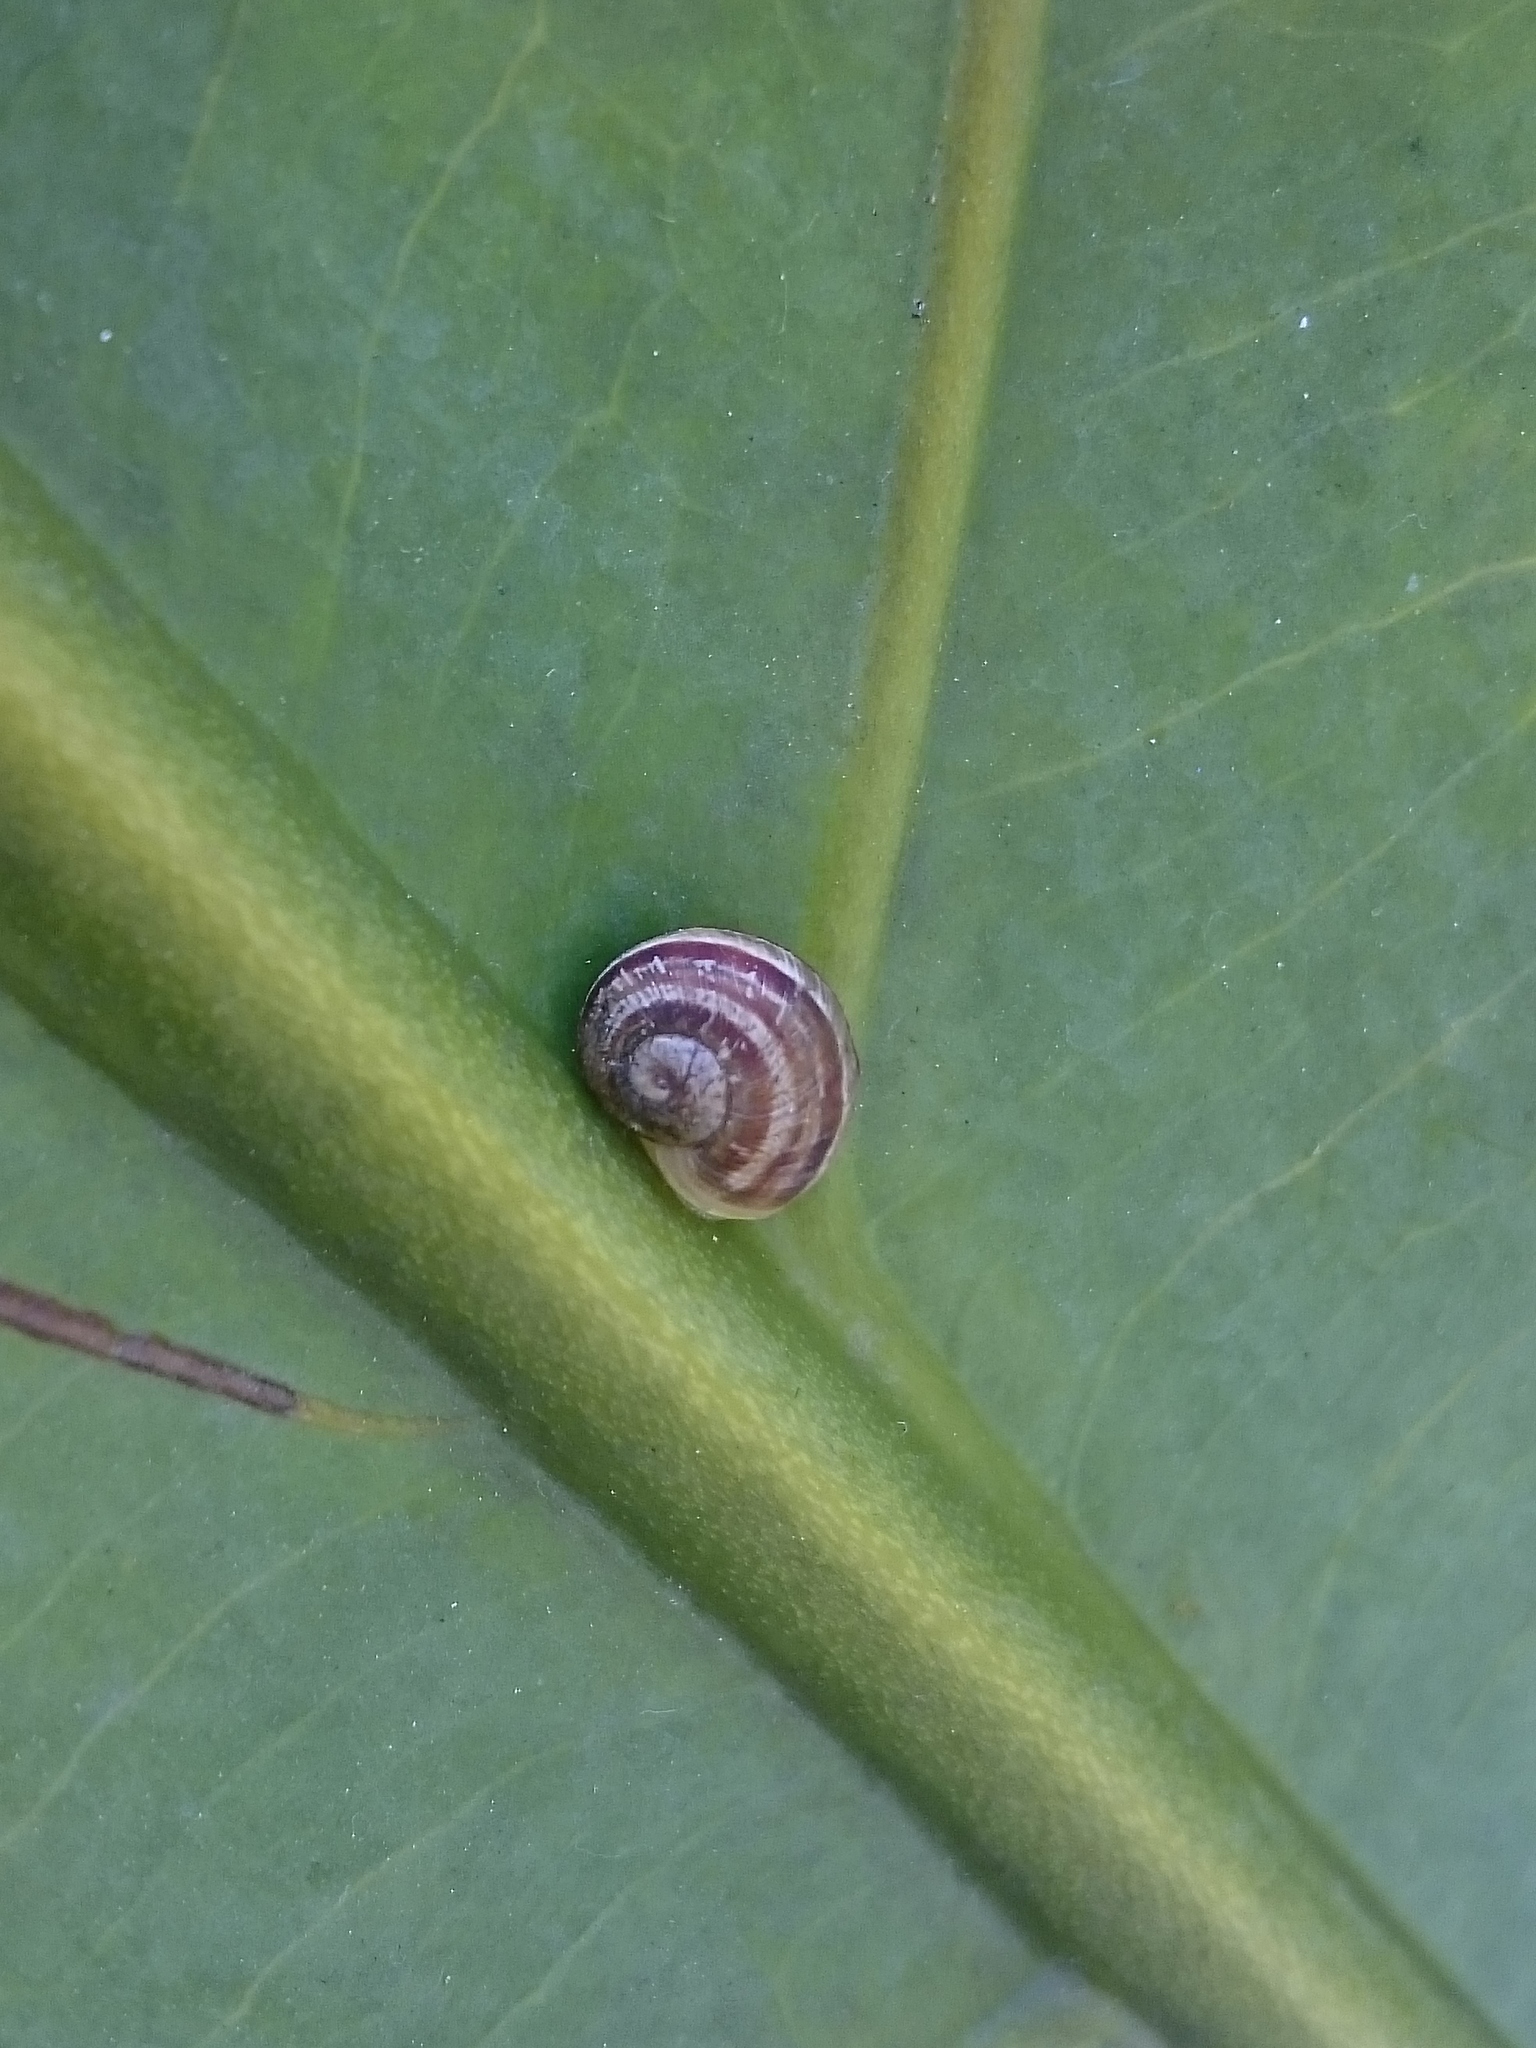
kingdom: Animalia
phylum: Mollusca
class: Gastropoda
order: Stylommatophora
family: Helicidae
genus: Cornu
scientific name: Cornu aspersum
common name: Brown garden snail
